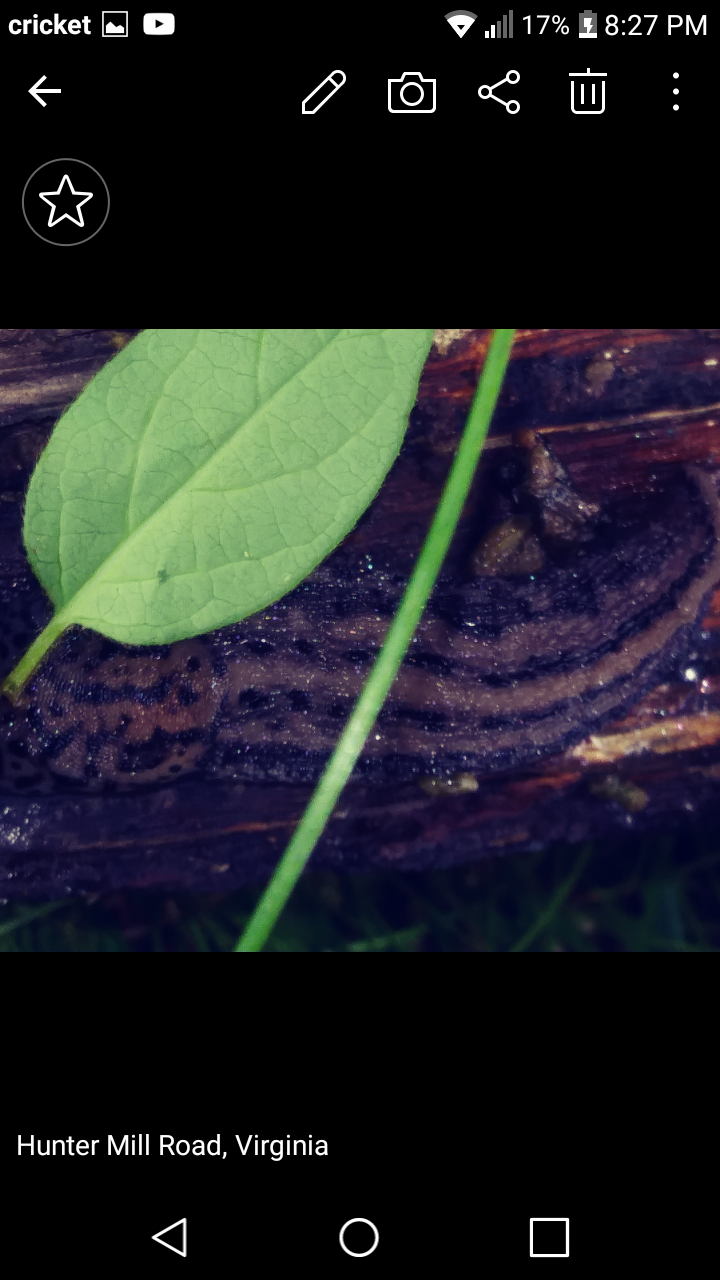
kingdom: Animalia
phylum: Mollusca
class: Gastropoda
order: Stylommatophora
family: Limacidae
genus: Limax
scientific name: Limax maximus
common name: Great grey slug
